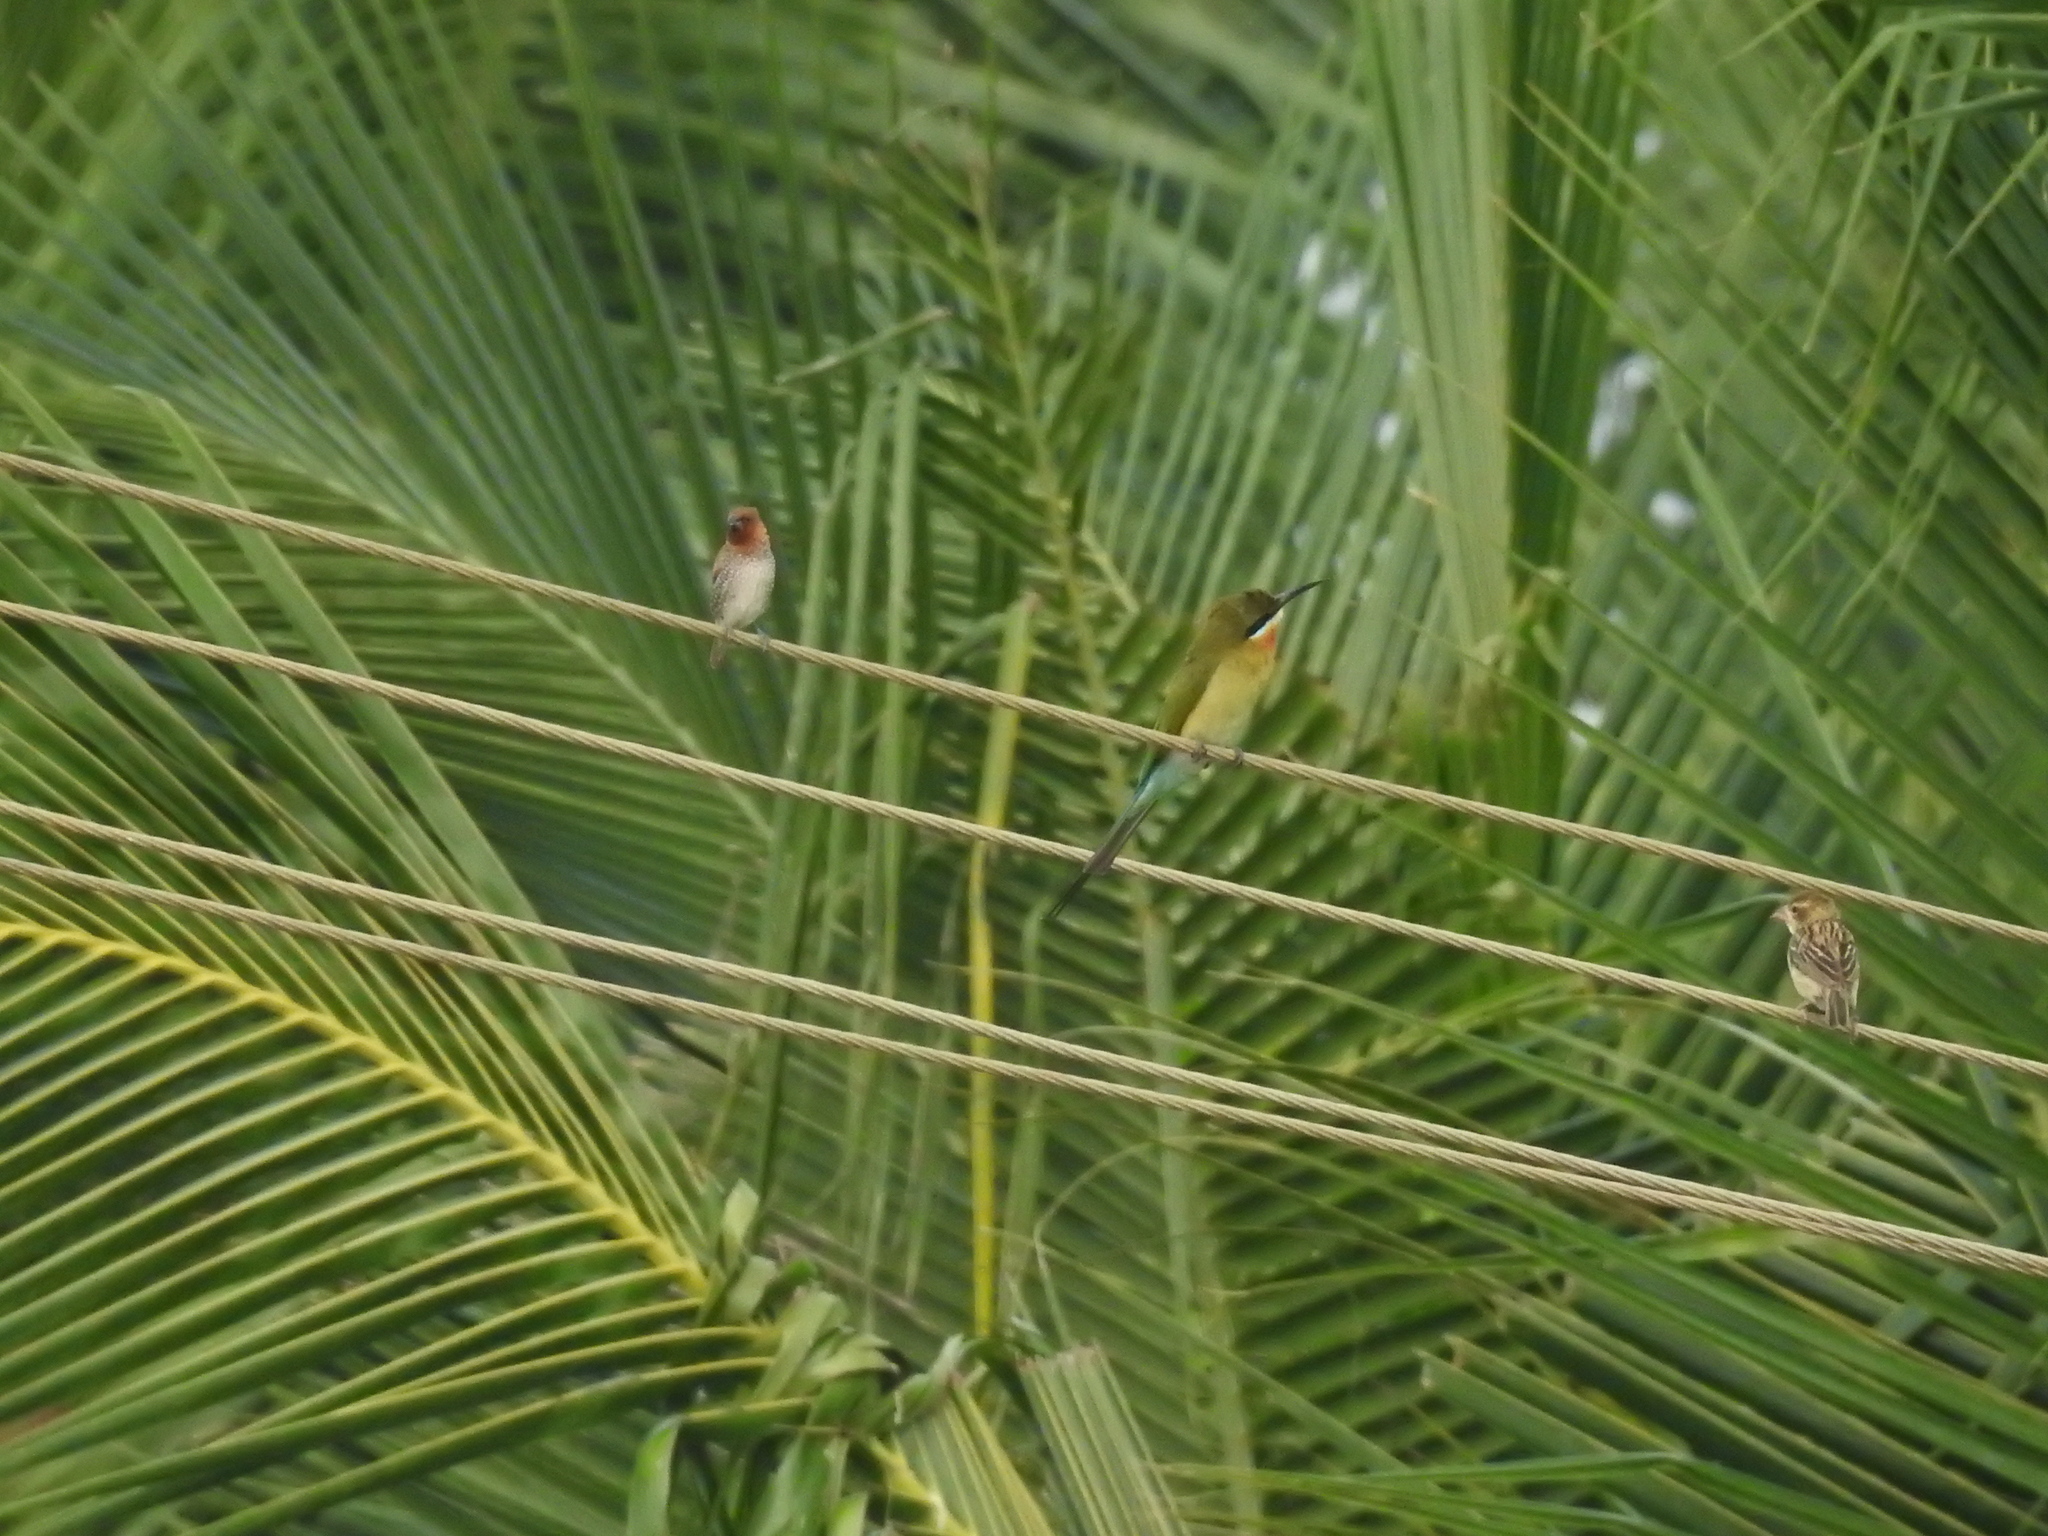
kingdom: Animalia
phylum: Chordata
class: Aves
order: Coraciiformes
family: Meropidae
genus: Merops
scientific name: Merops philippinus
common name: Blue-tailed bee-eater
